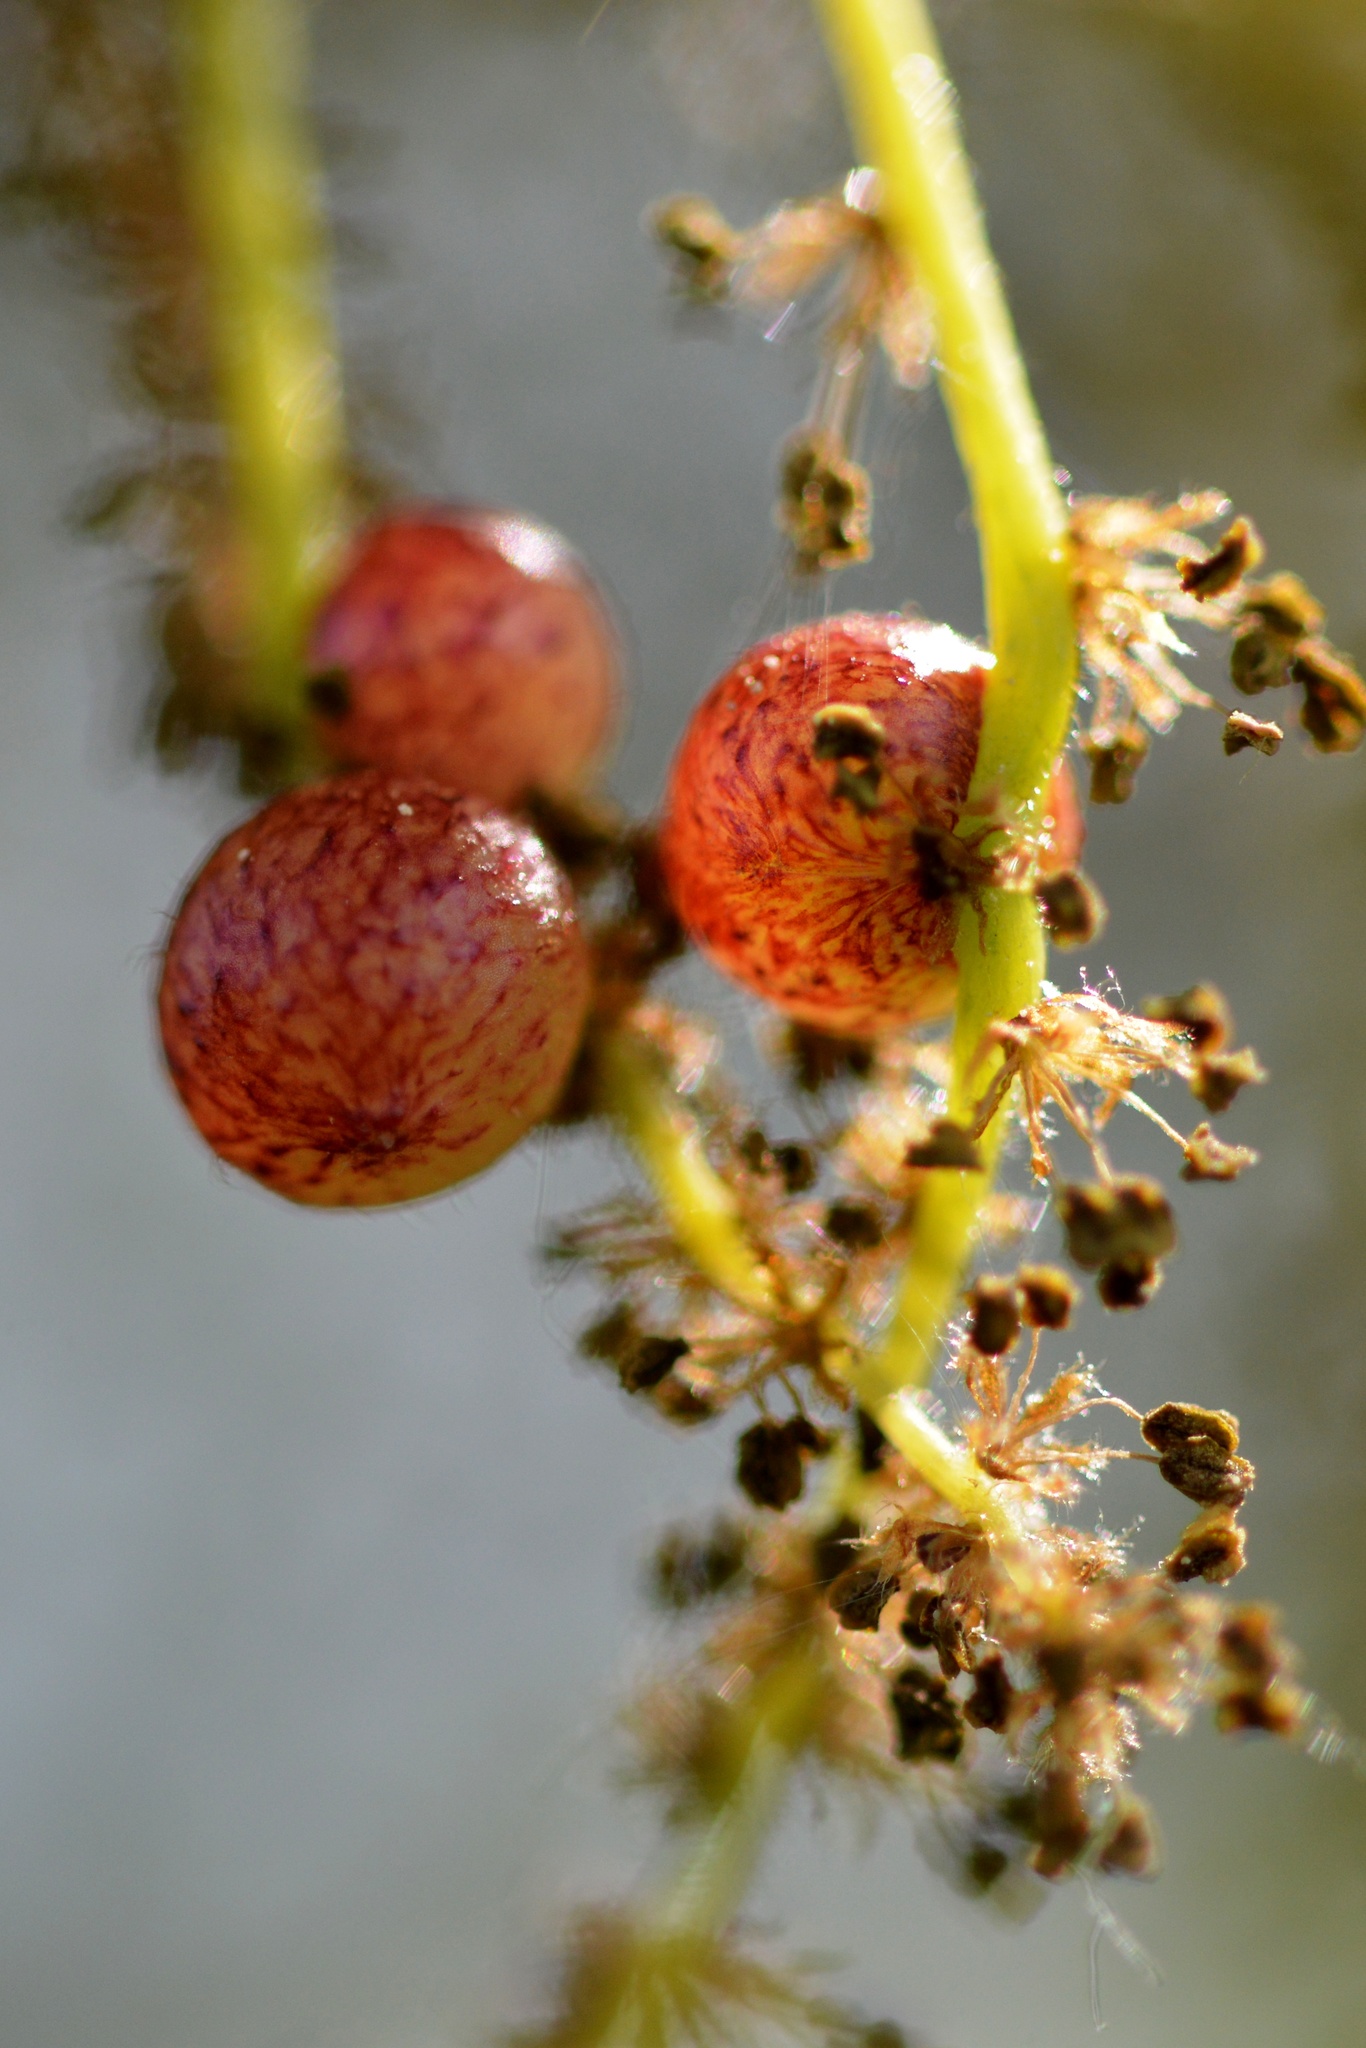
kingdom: Animalia
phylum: Arthropoda
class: Insecta
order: Hymenoptera
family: Cynipidae
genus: Neuroterus
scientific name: Neuroterus quercusbaccarum
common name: Common spangle gall
